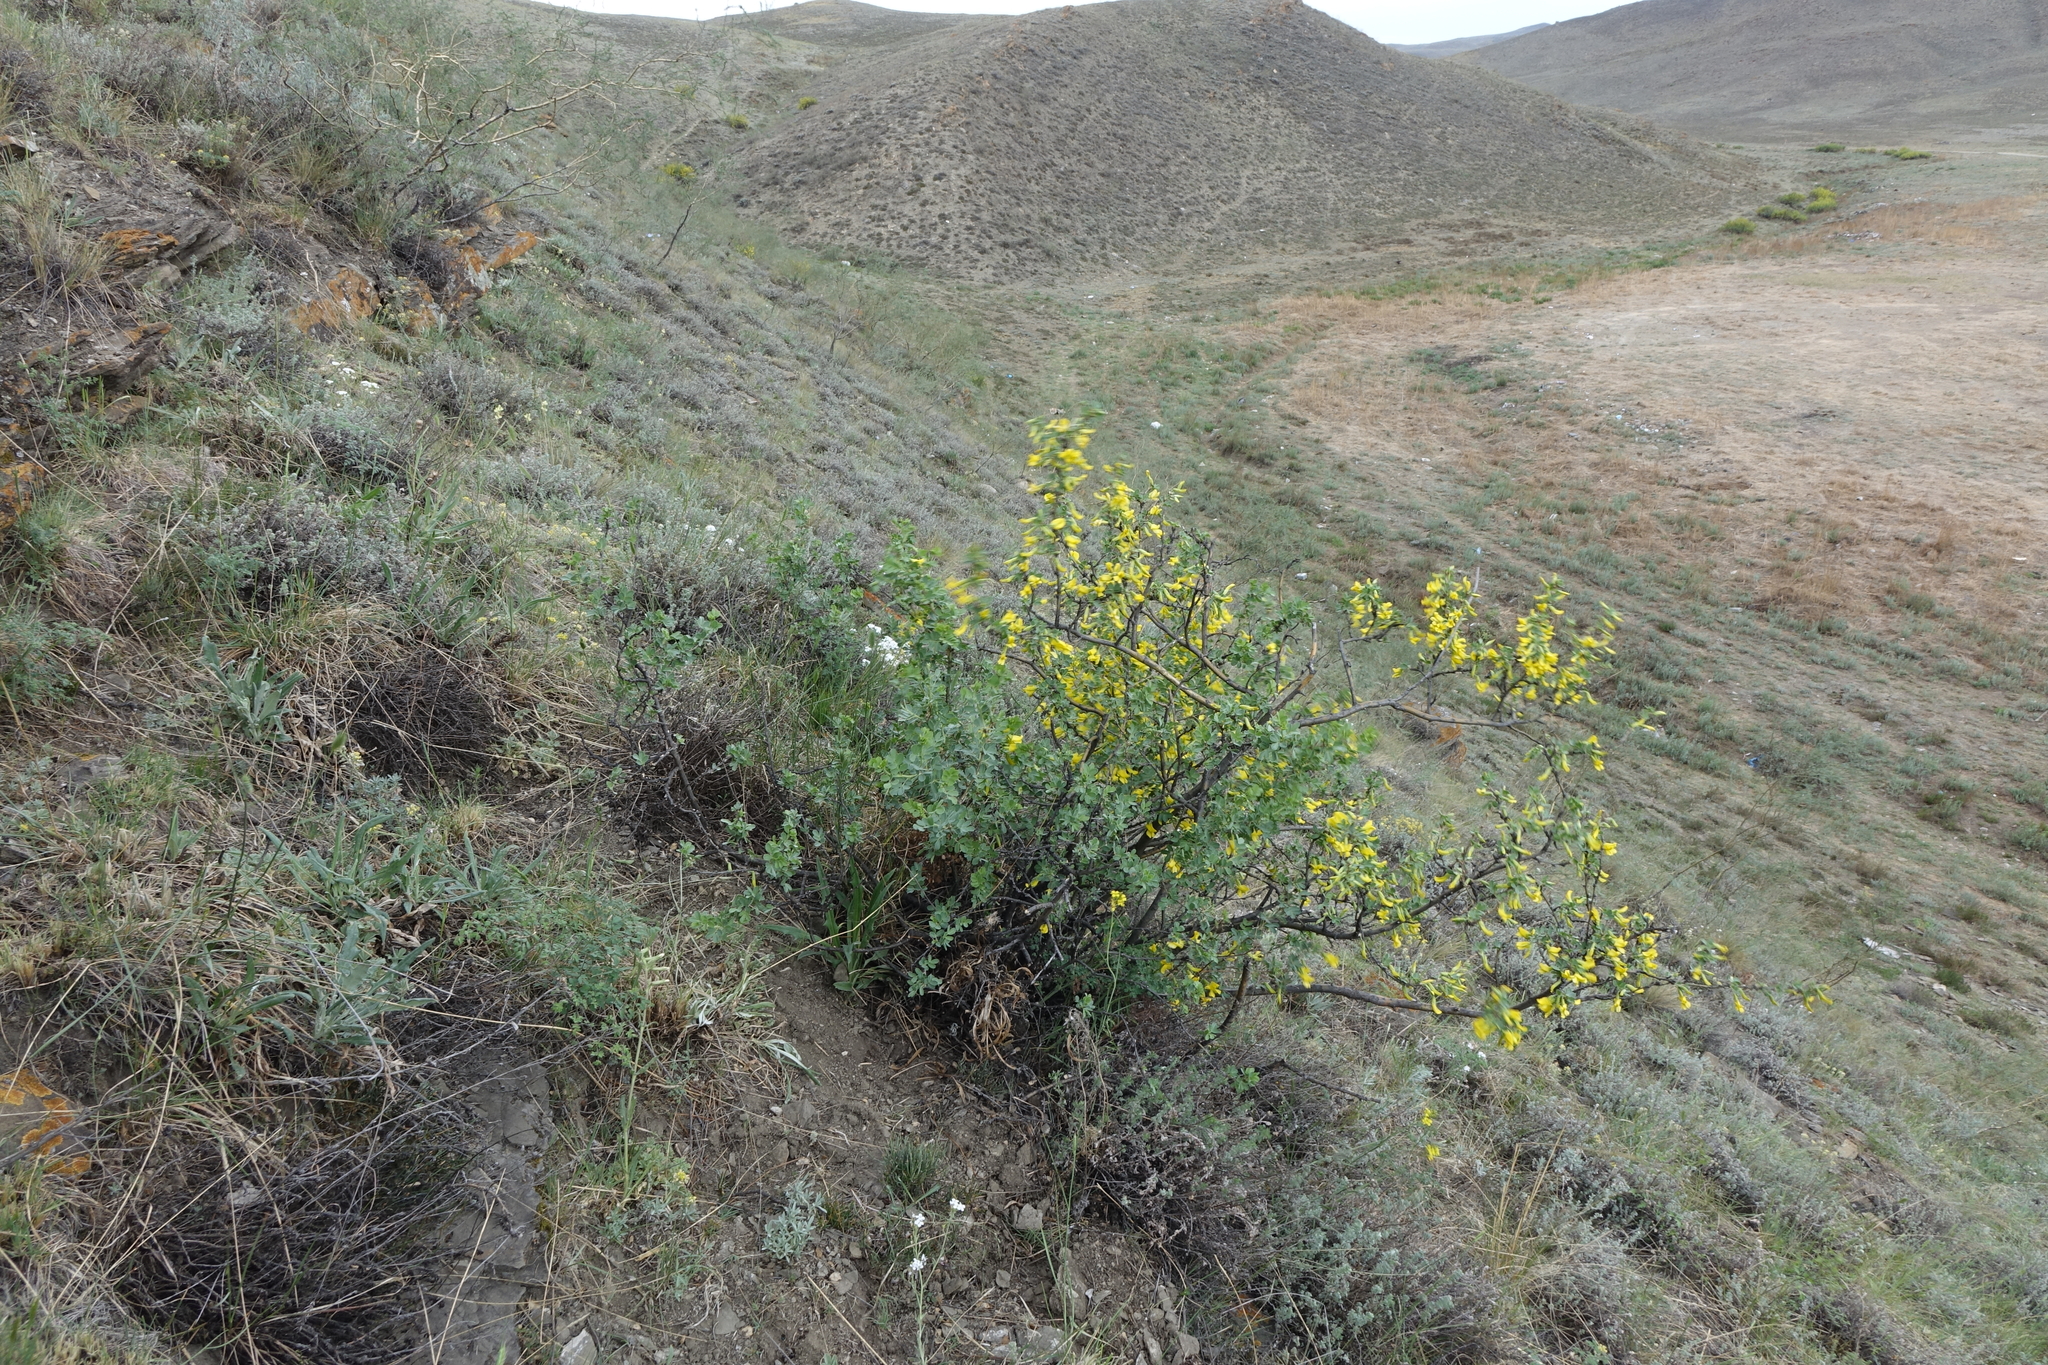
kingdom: Plantae
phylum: Tracheophyta
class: Magnoliopsida
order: Fabales
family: Fabaceae
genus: Caragana
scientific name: Caragana bungei
